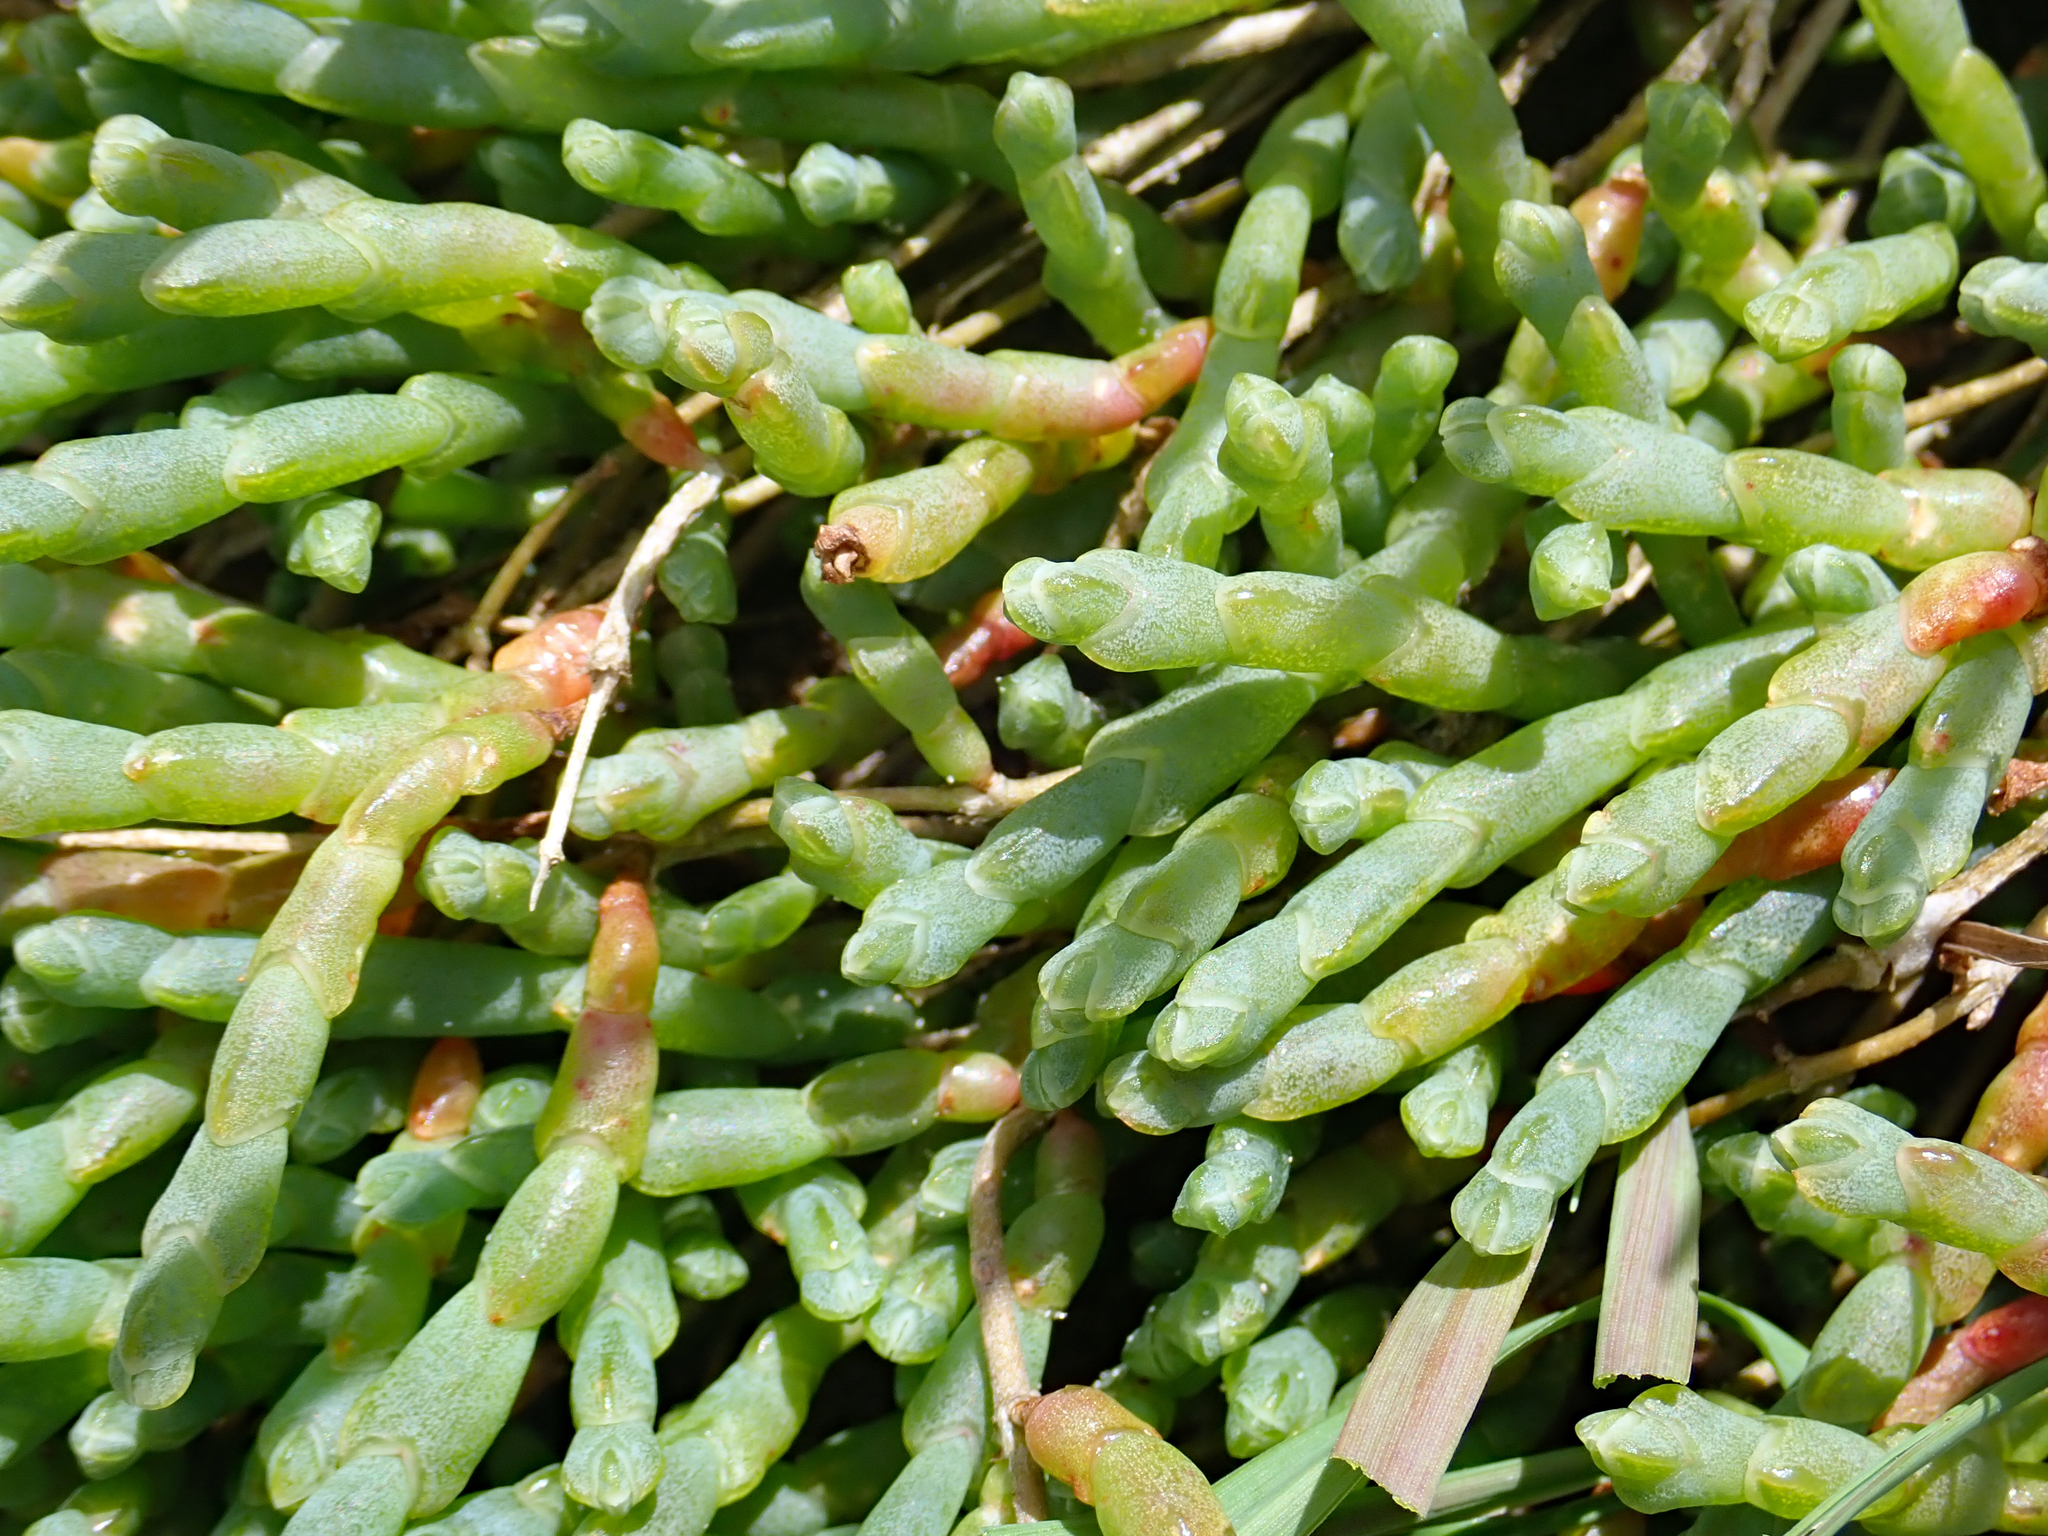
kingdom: Plantae
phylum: Tracheophyta
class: Magnoliopsida
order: Caryophyllales
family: Amaranthaceae
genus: Salicornia
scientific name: Salicornia quinqueflora
